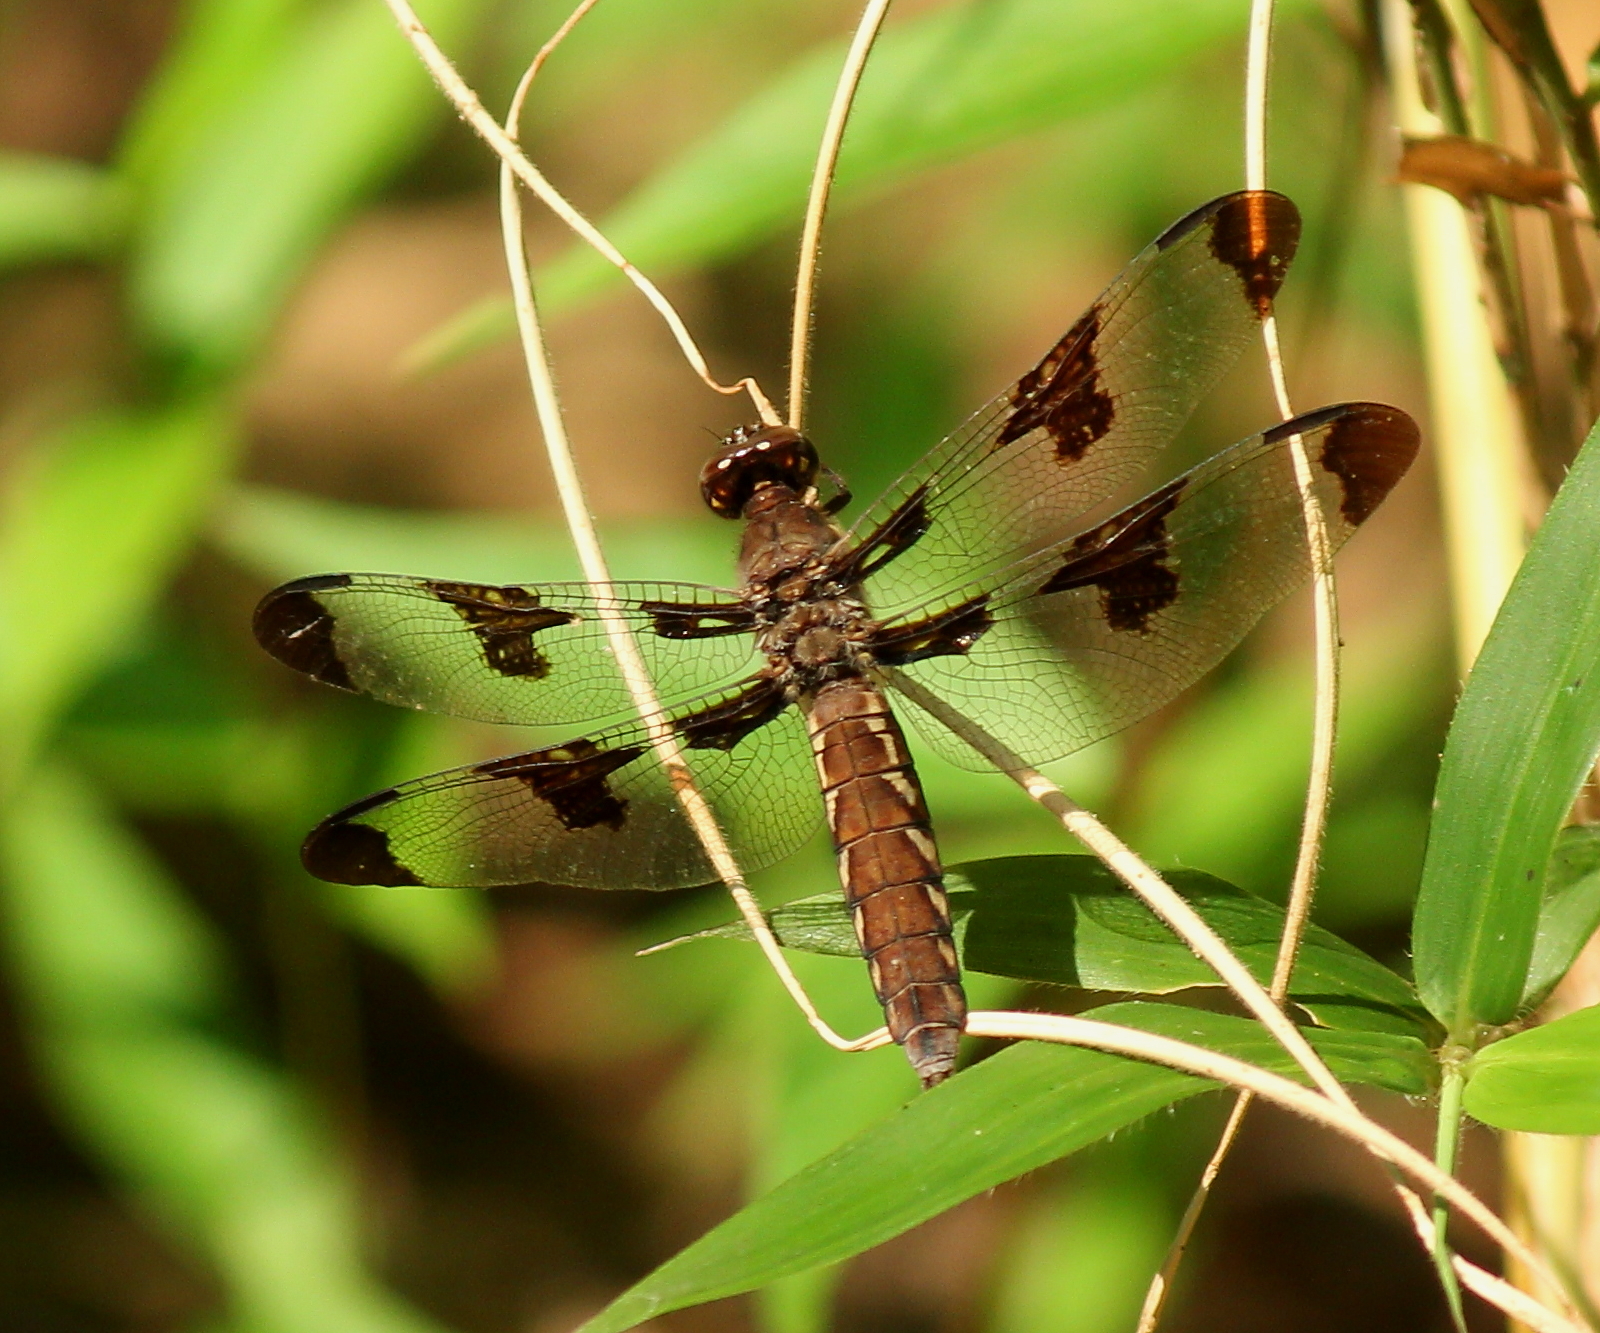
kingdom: Animalia
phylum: Arthropoda
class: Insecta
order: Odonata
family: Libellulidae
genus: Plathemis
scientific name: Plathemis lydia
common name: Common whitetail
